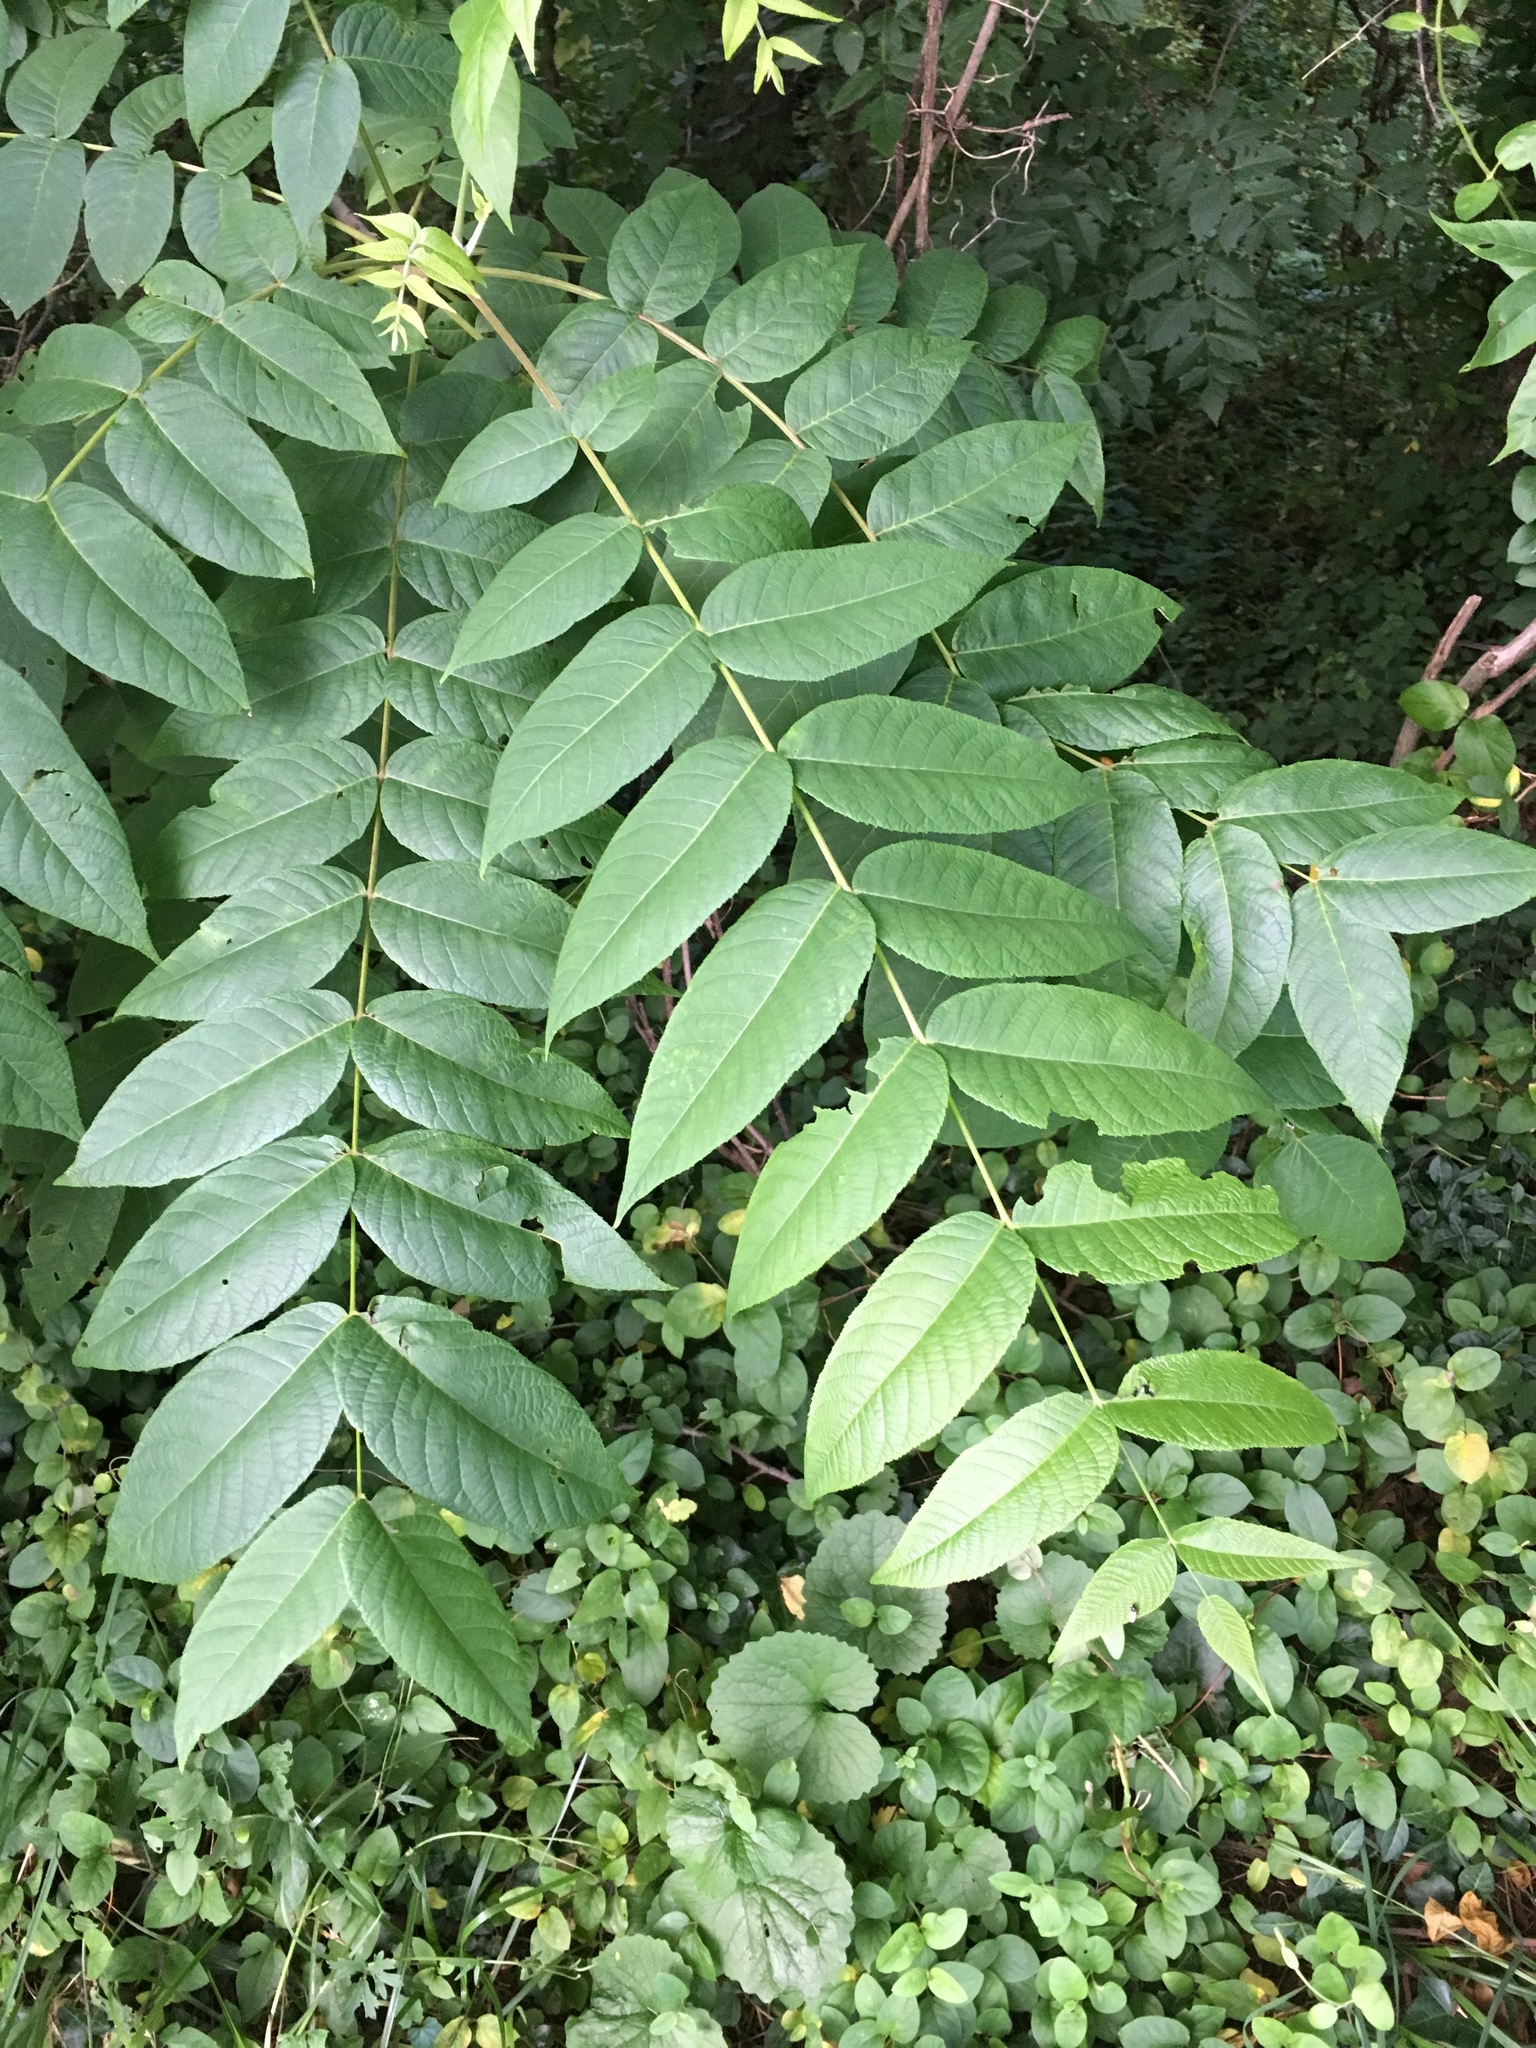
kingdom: Plantae
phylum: Tracheophyta
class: Magnoliopsida
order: Fagales
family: Juglandaceae
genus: Juglans
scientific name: Juglans nigra
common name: Black walnut
